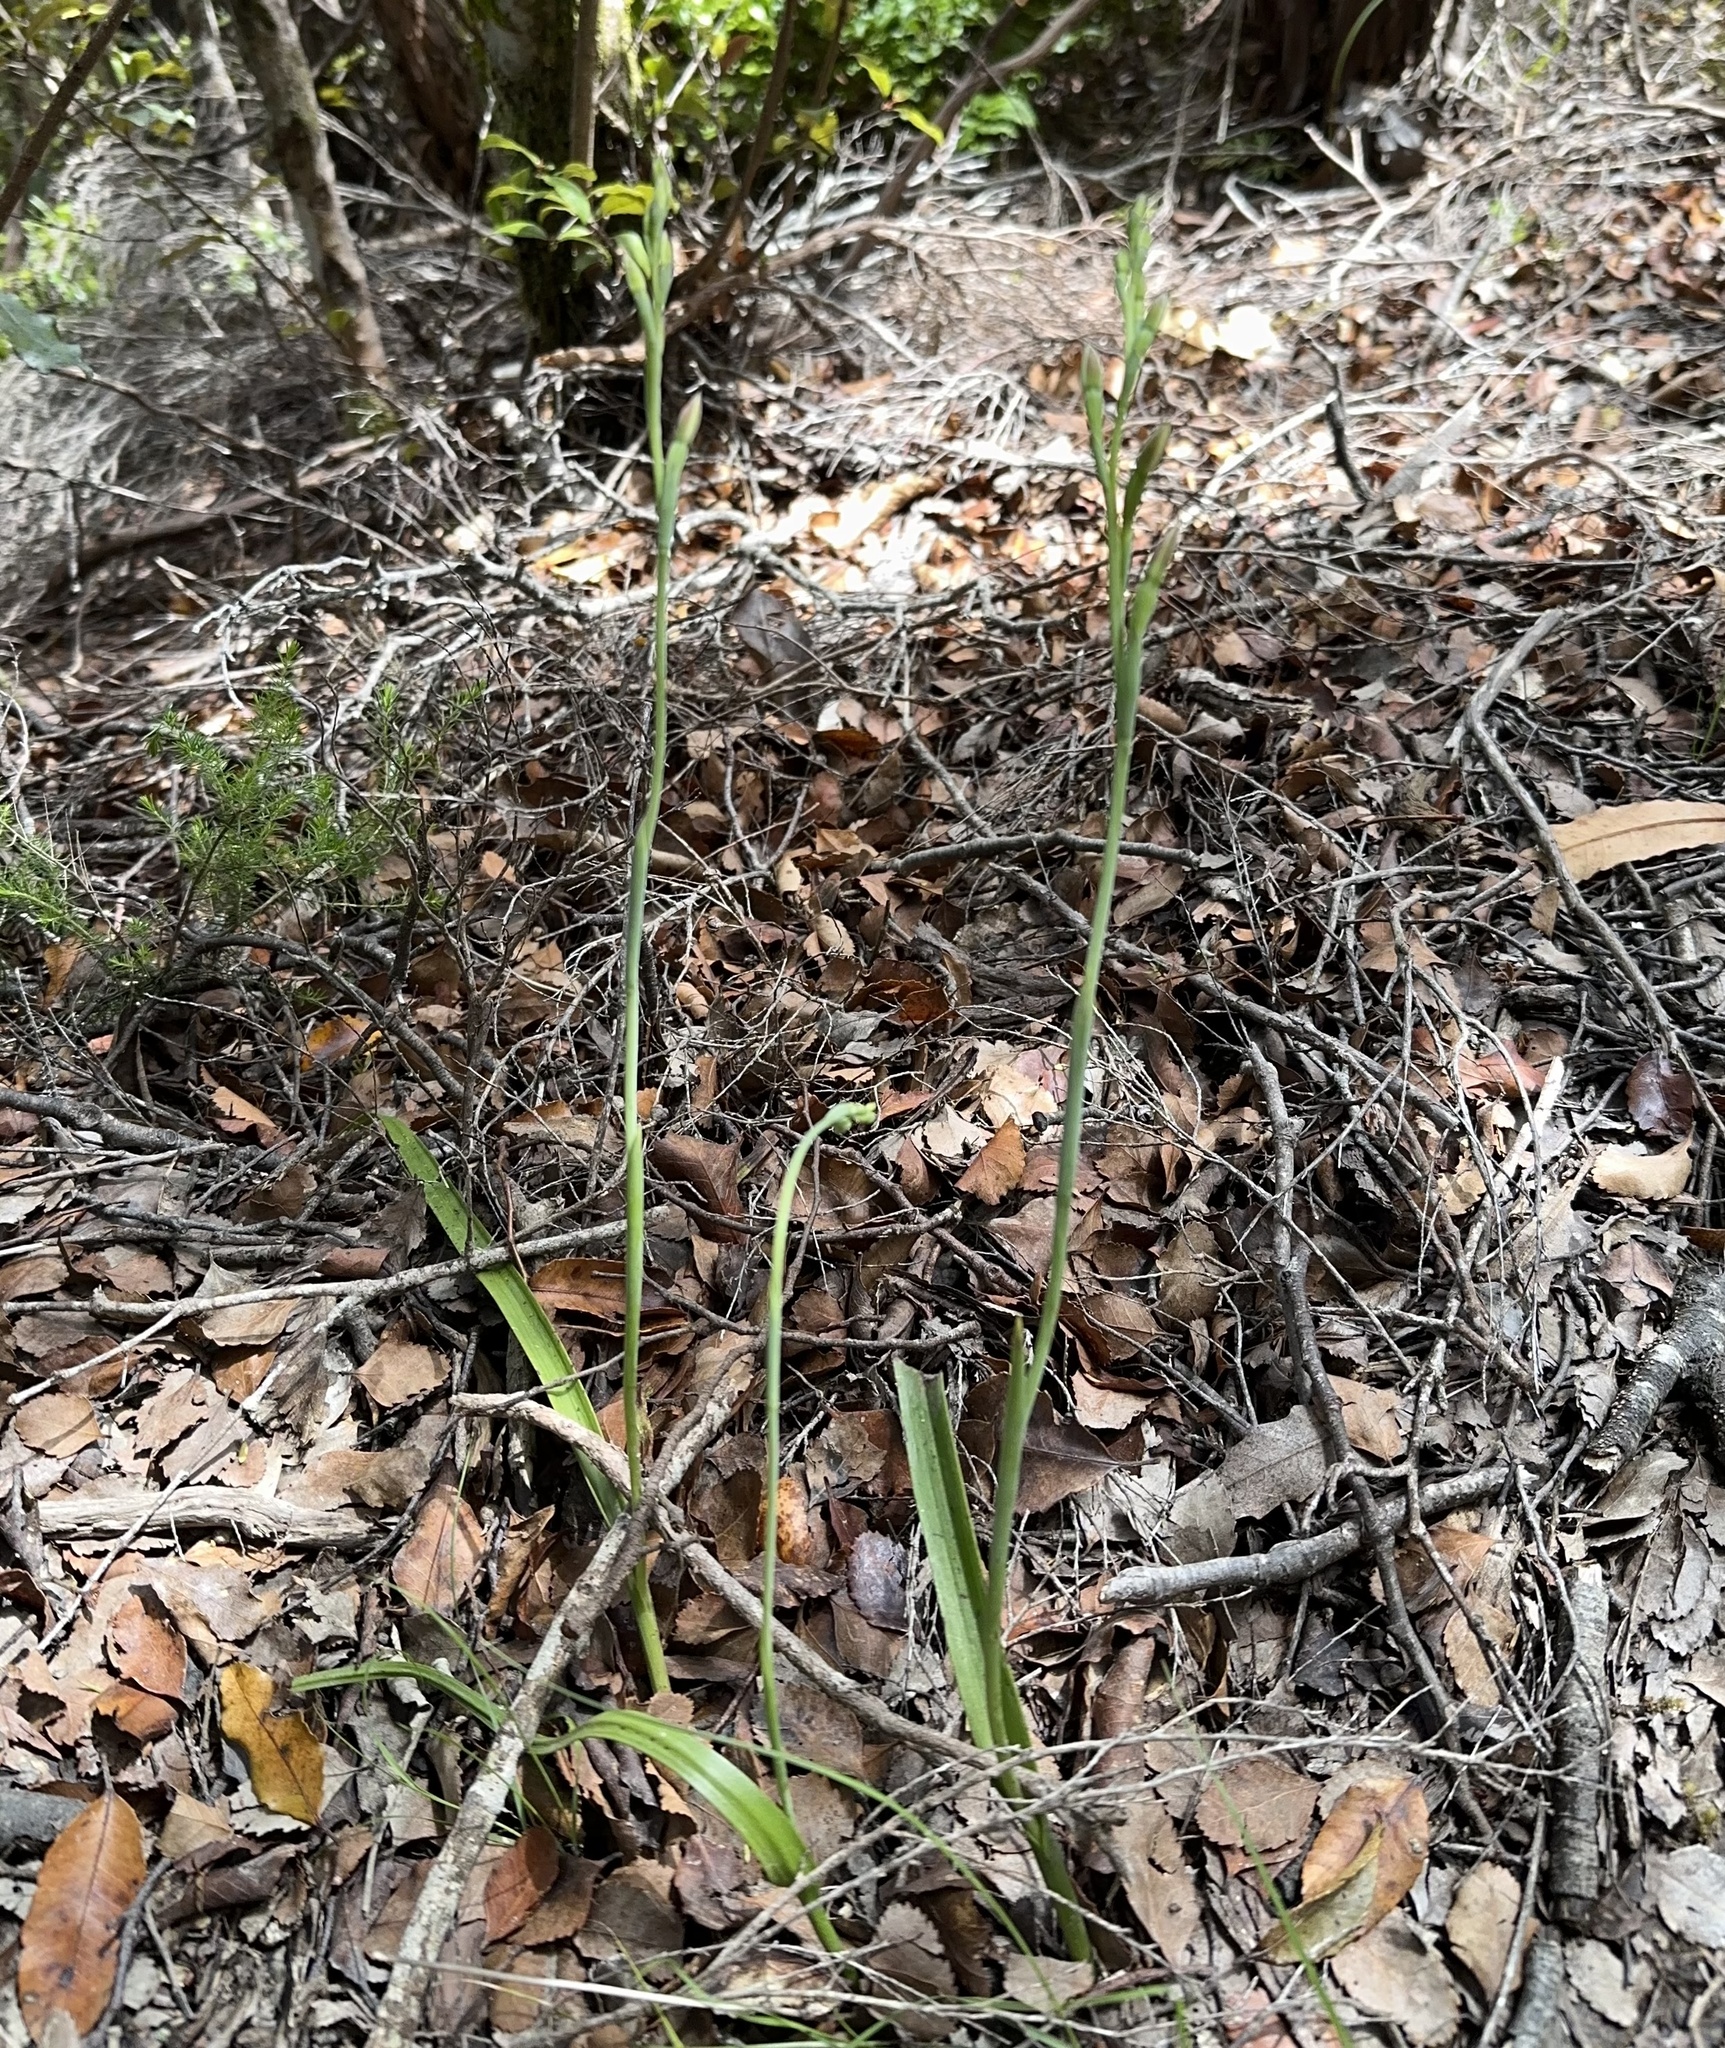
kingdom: Plantae
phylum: Tracheophyta
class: Liliopsida
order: Asparagales
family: Orchidaceae
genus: Thelymitra
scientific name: Thelymitra longifolia
